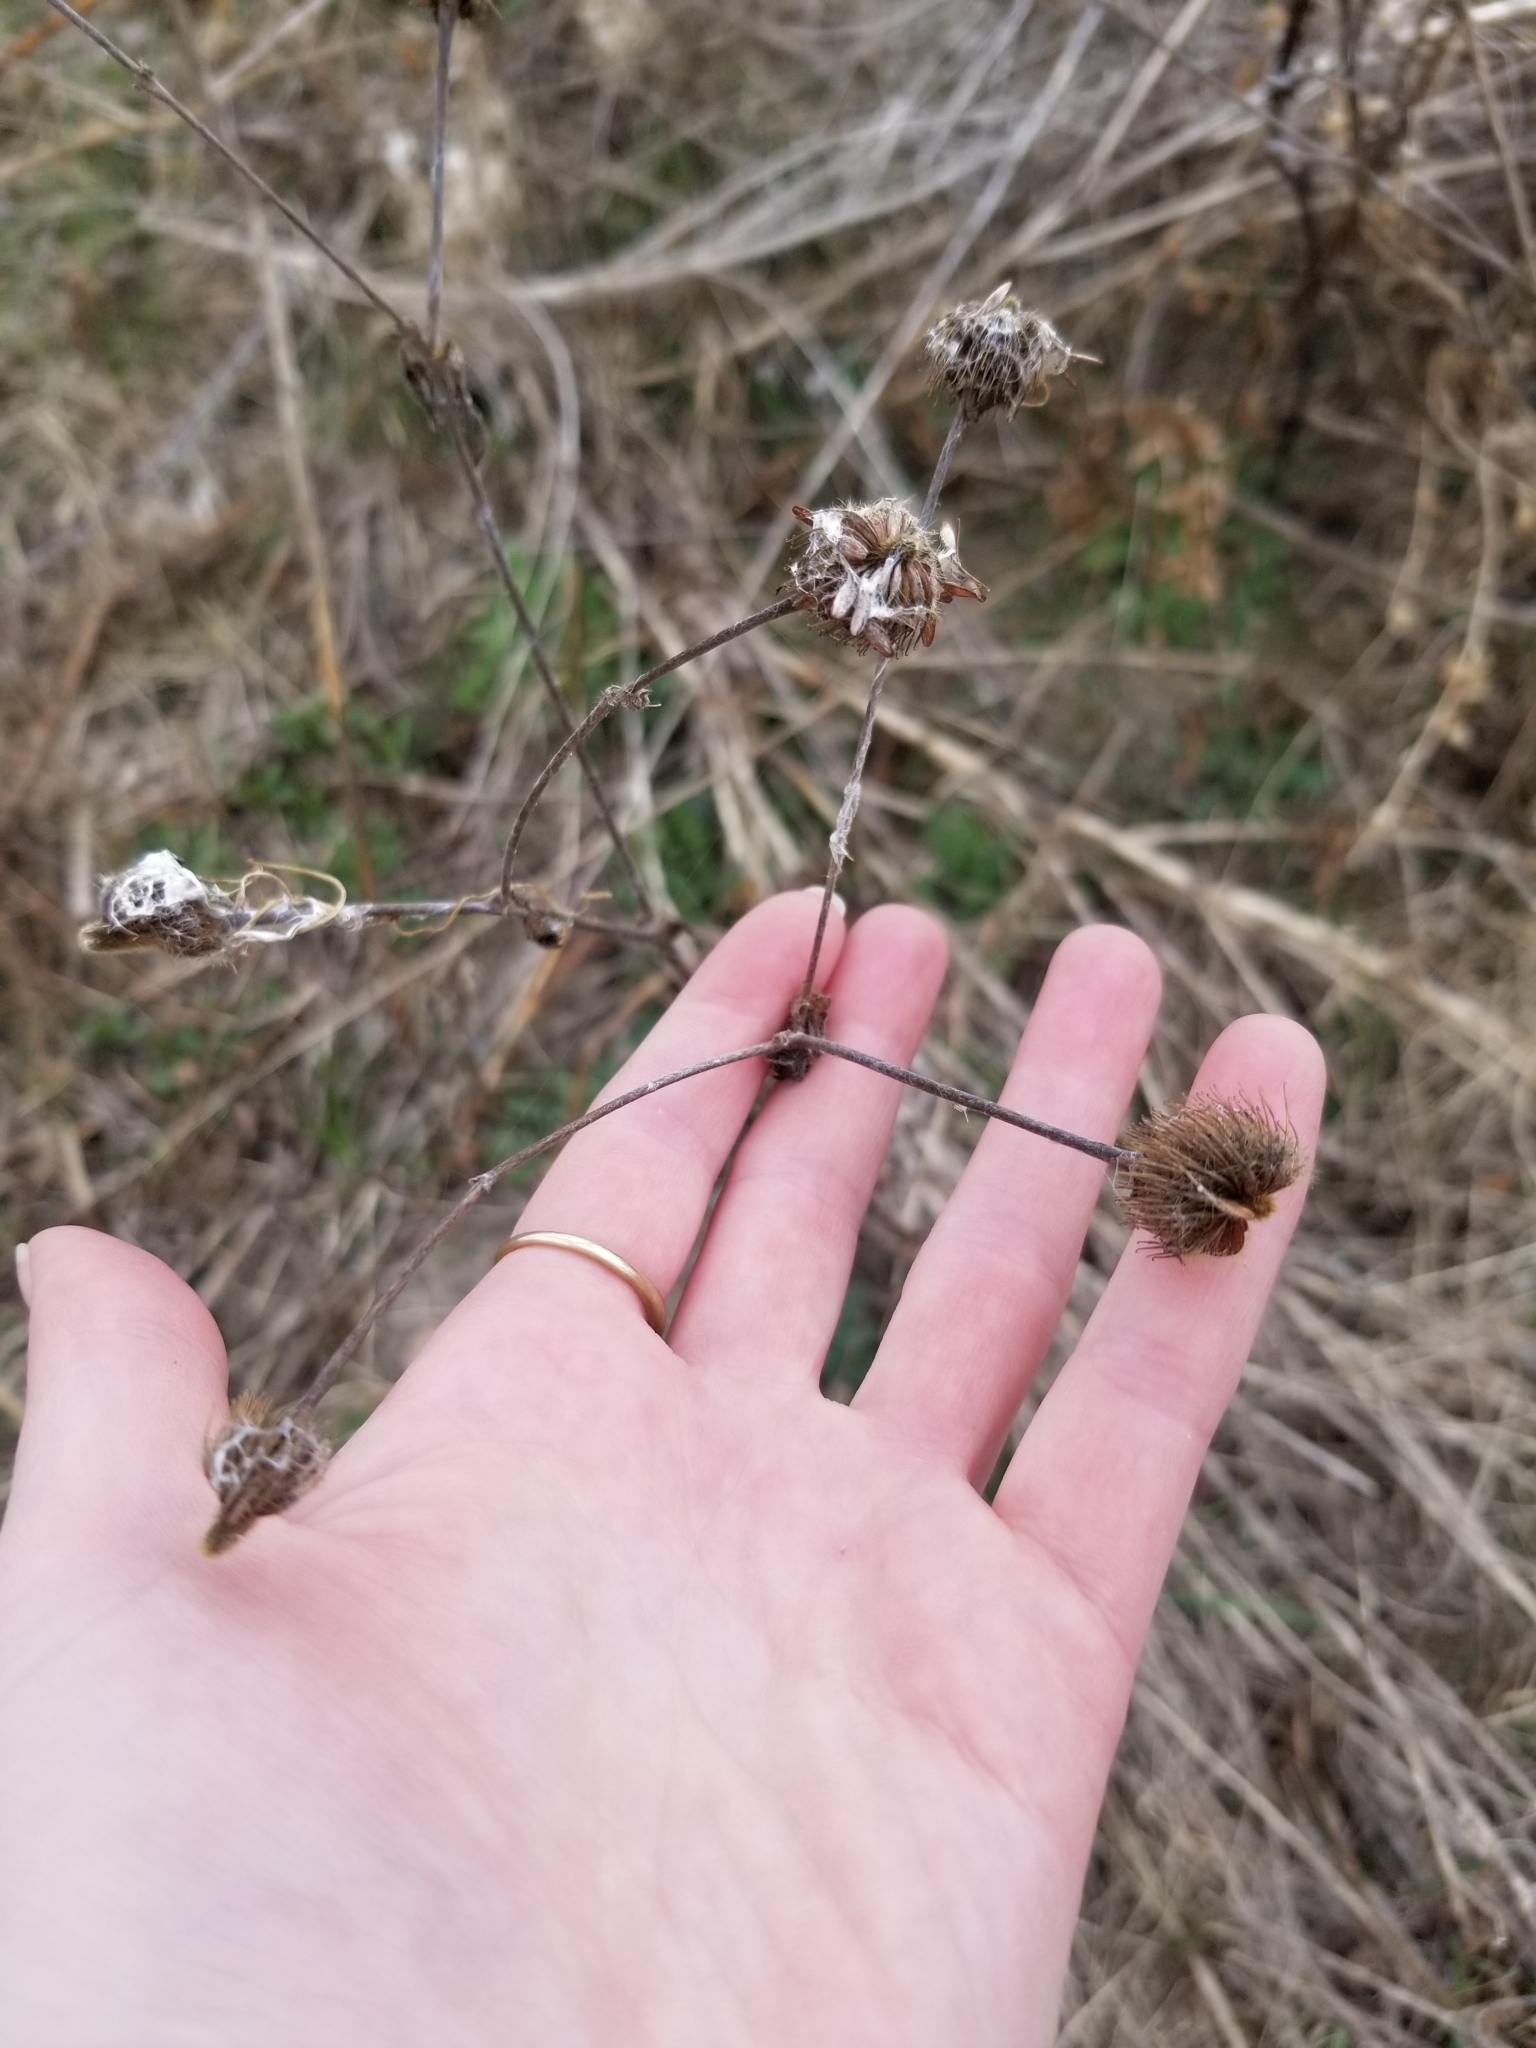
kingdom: Plantae
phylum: Tracheophyta
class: Magnoliopsida
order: Rosales
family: Rosaceae
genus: Geum
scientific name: Geum macrophyllum
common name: Large-leaved avens
